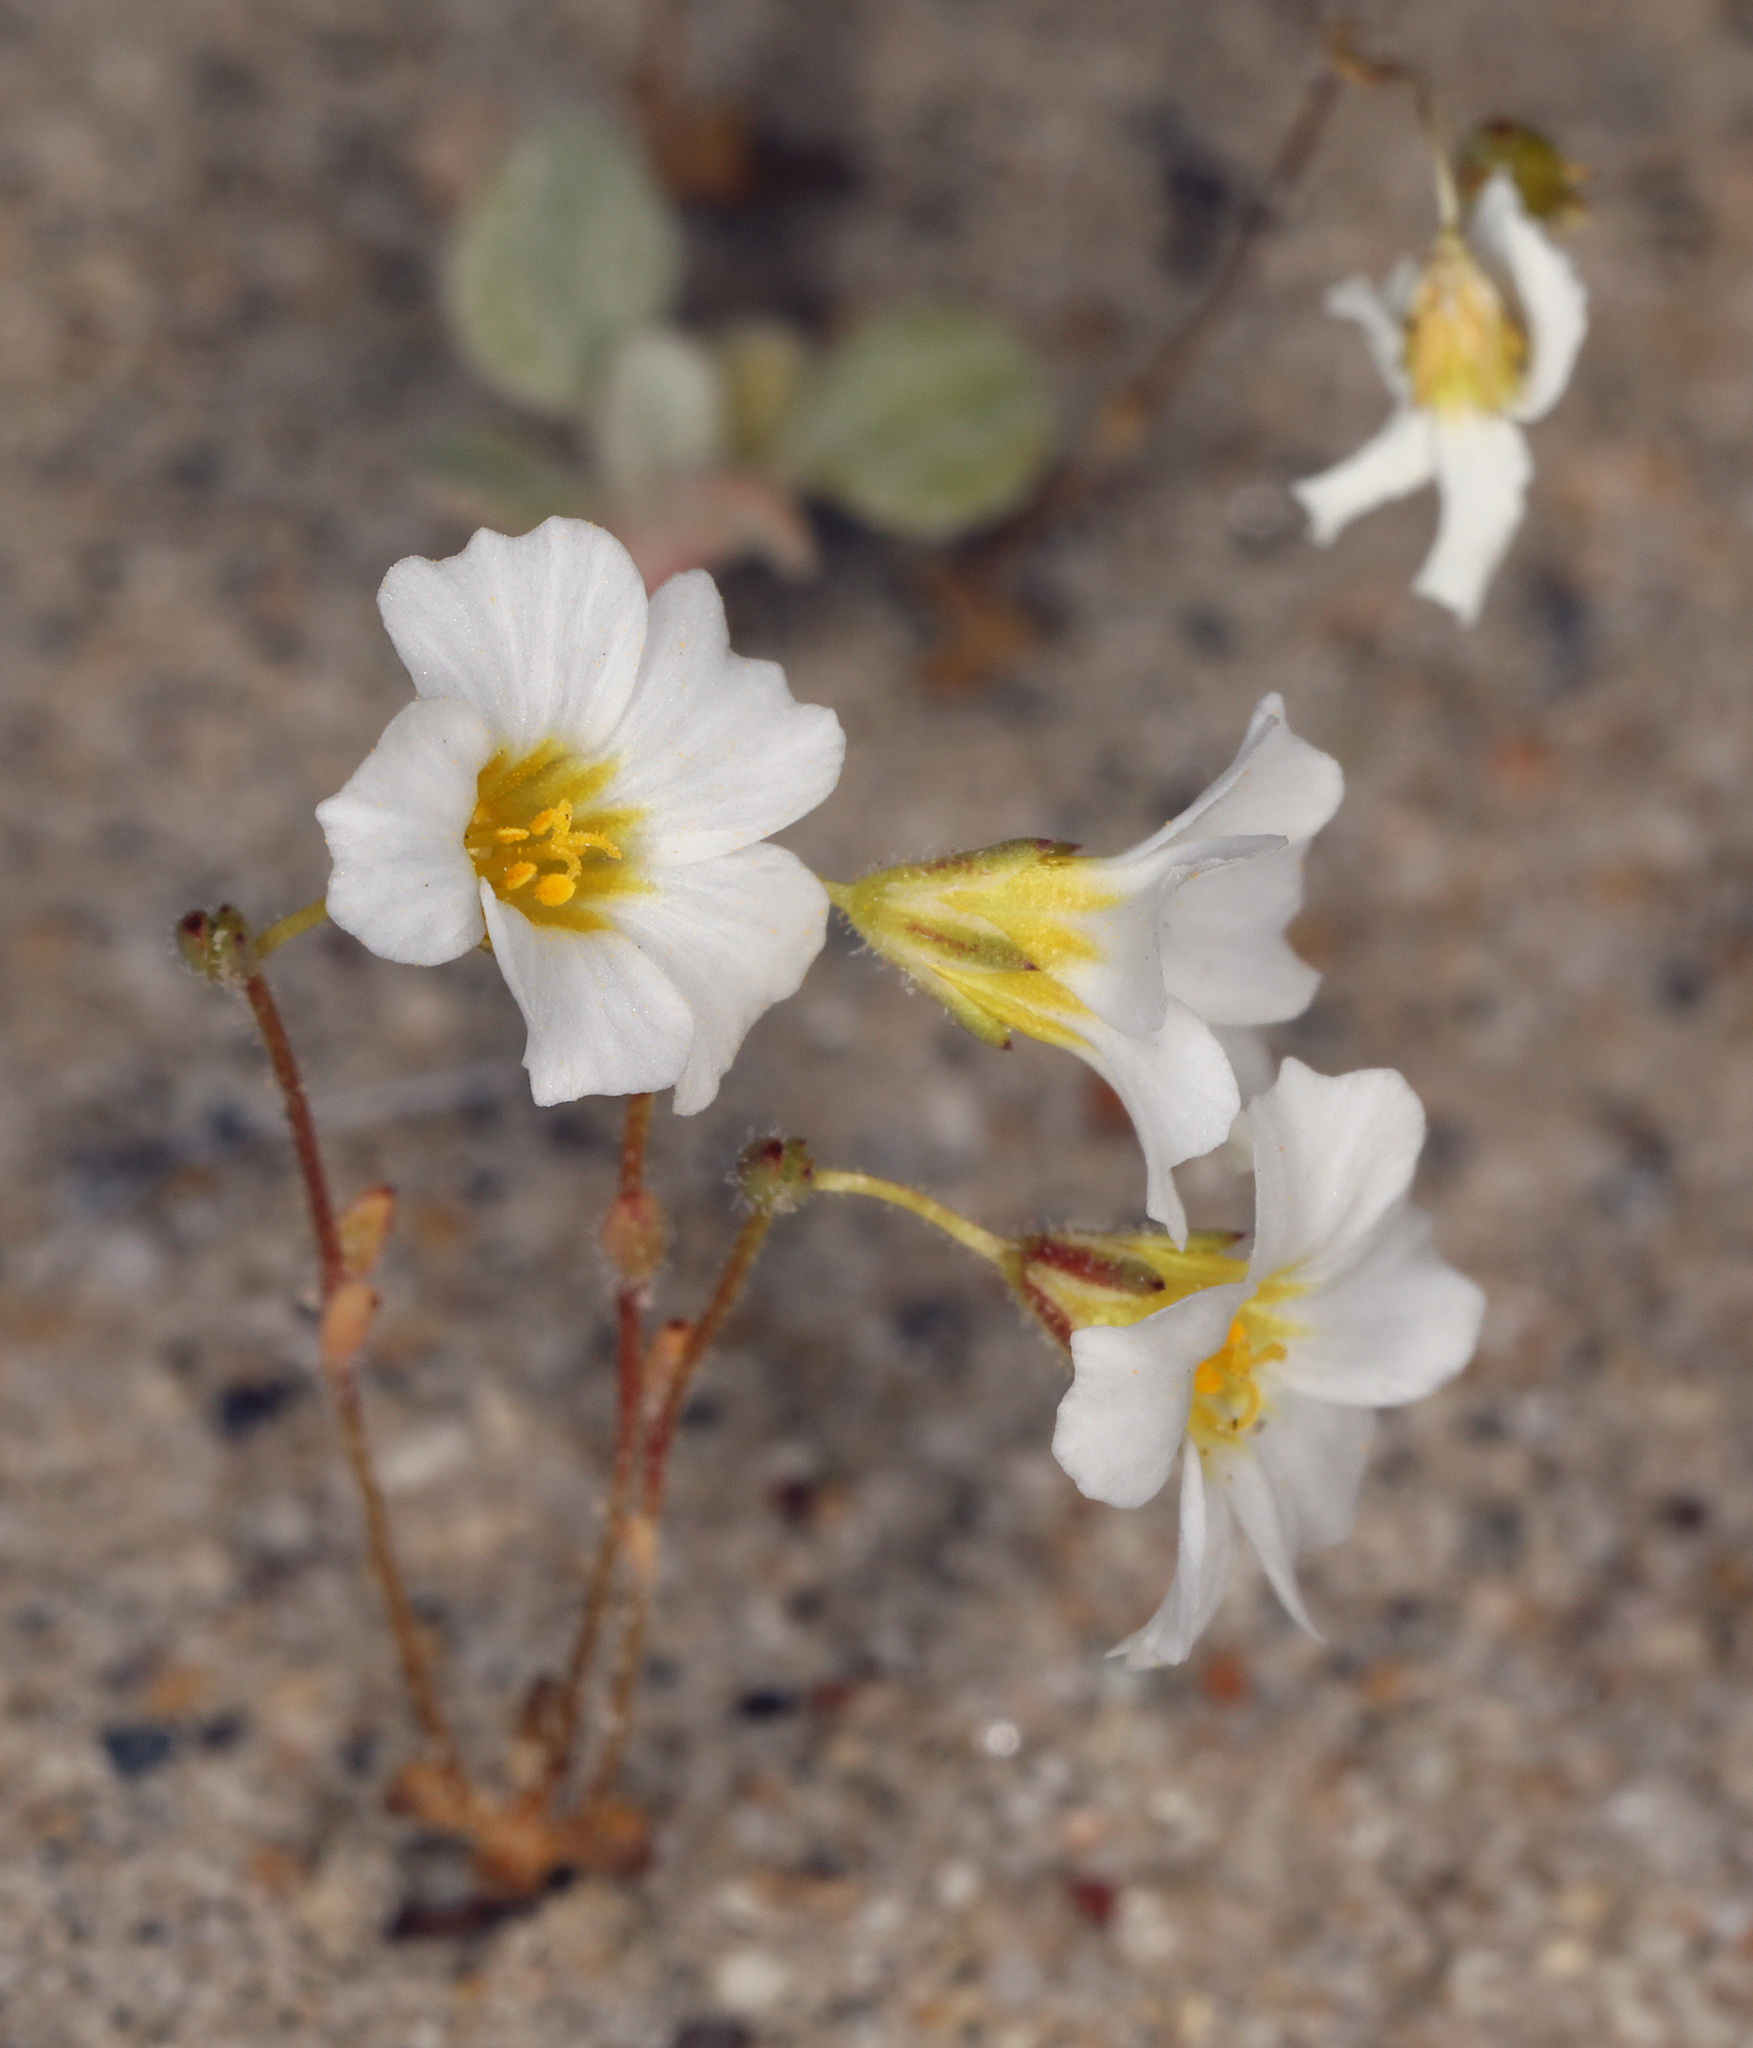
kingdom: Plantae
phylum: Tracheophyta
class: Magnoliopsida
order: Ericales
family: Polemoniaceae
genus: Linanthus
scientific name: Linanthus inyoensis
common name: Inyo gilia
